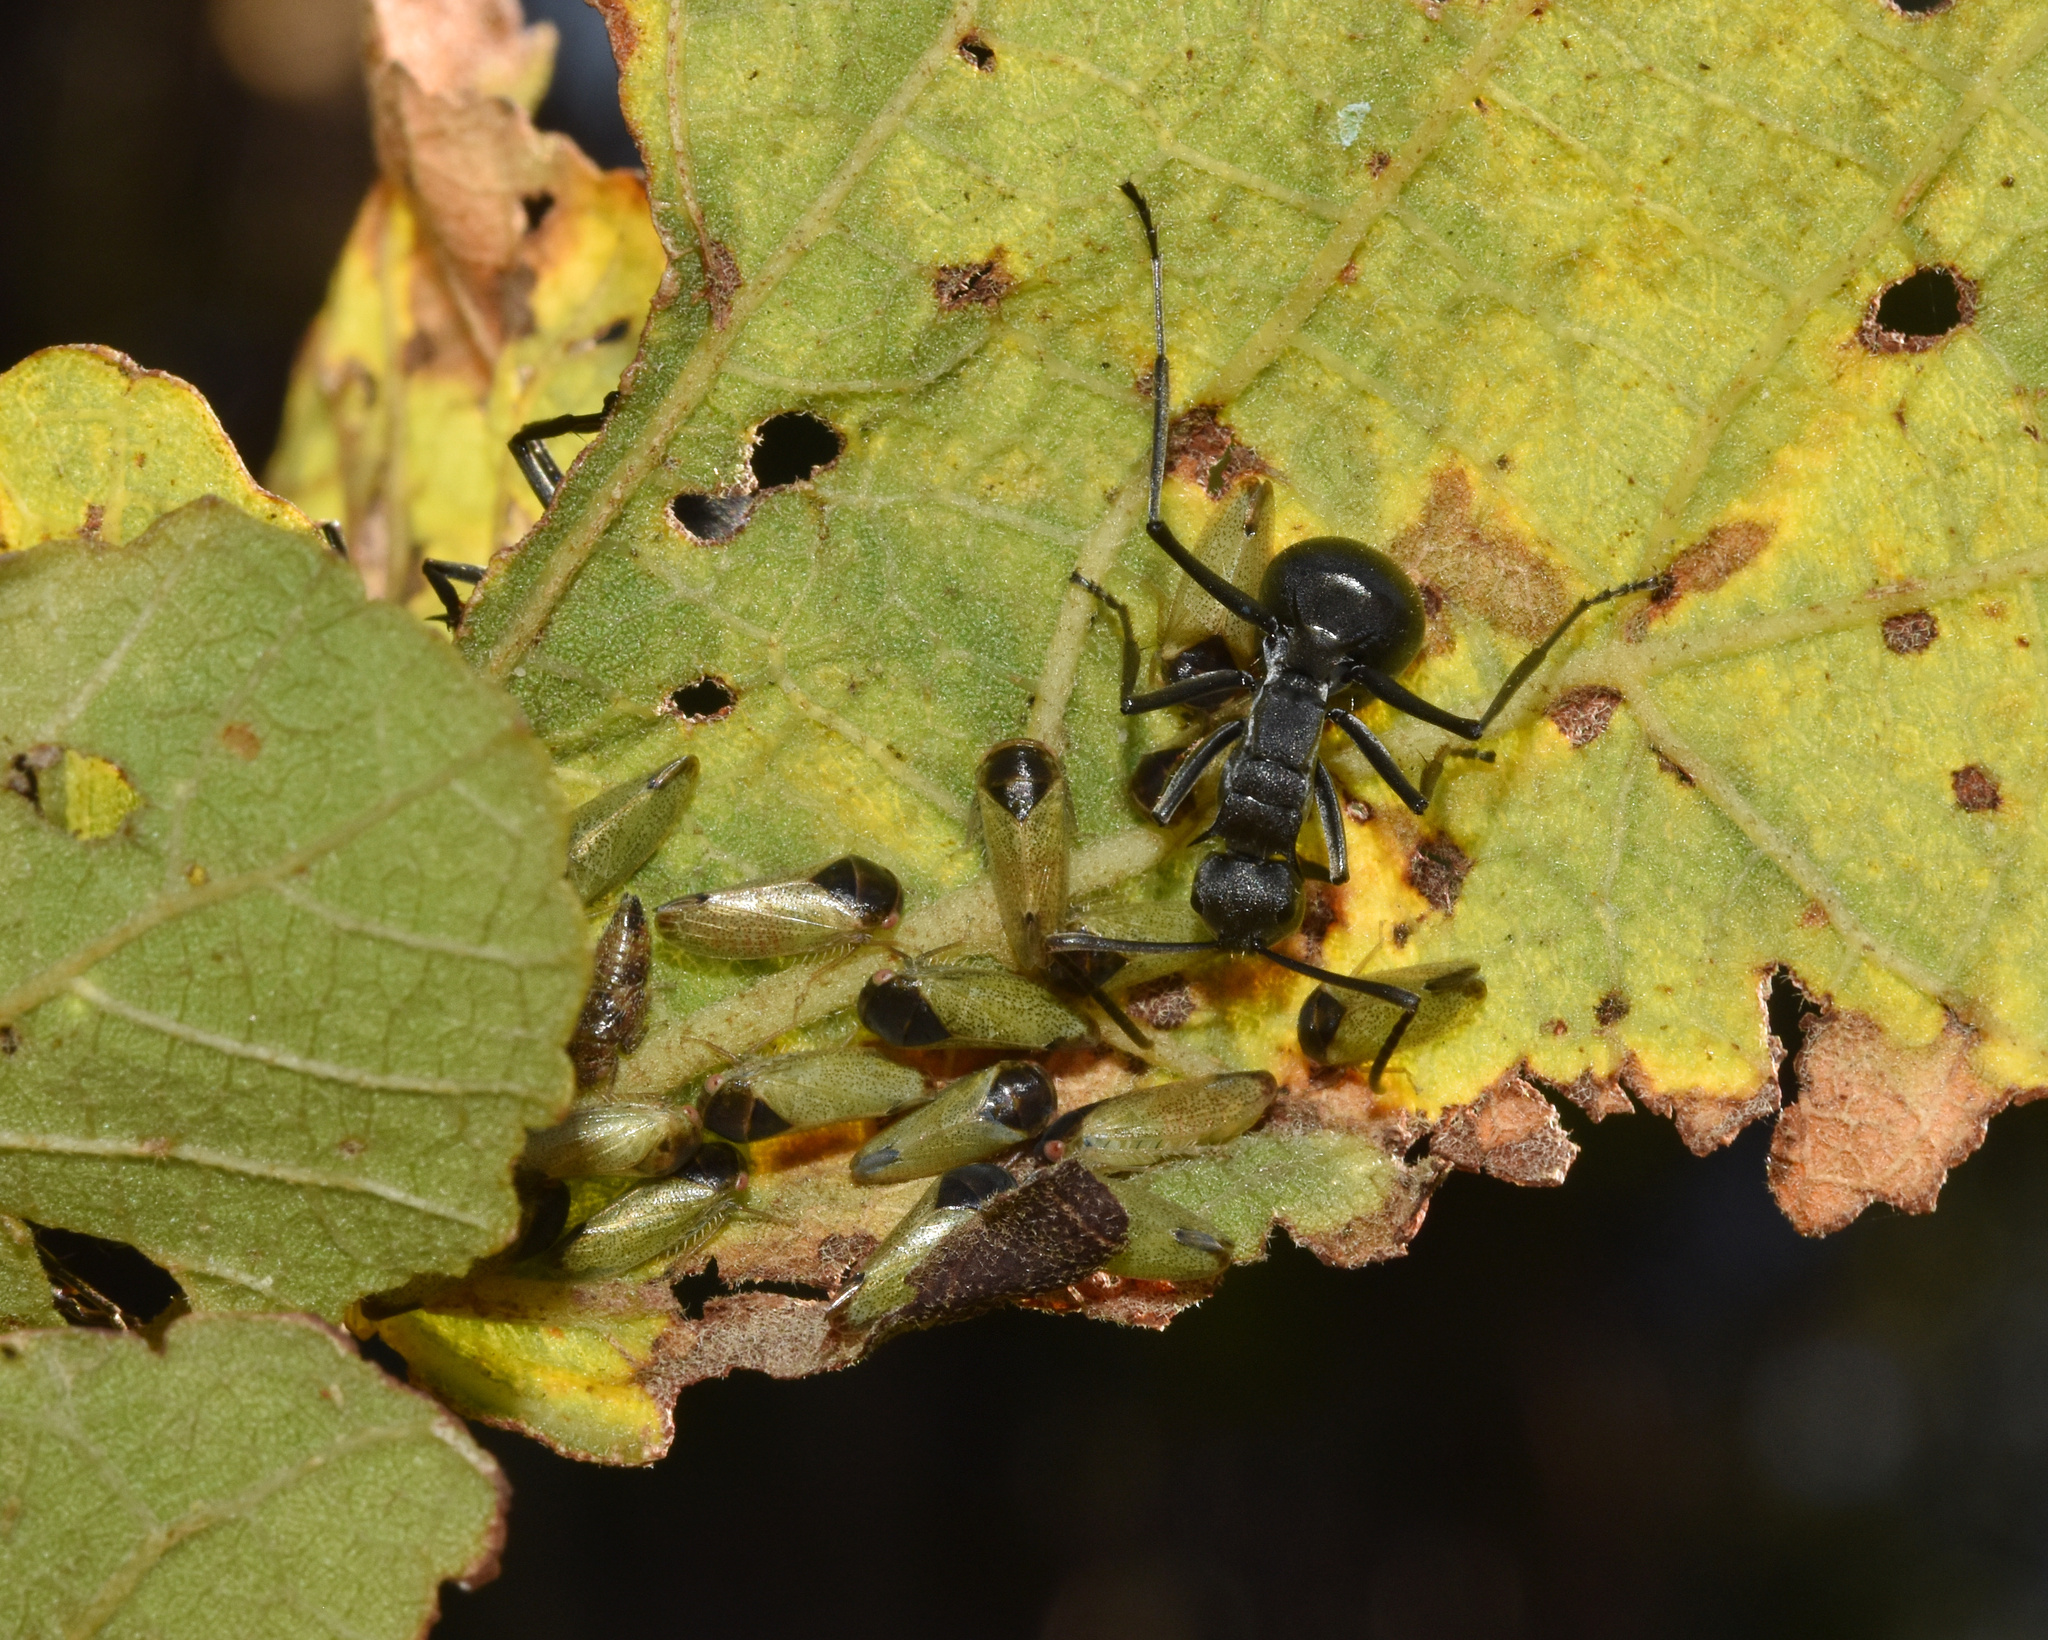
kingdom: Animalia
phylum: Arthropoda
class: Insecta
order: Hymenoptera
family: Formicidae
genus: Polyrhachis
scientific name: Polyrhachis gagates
